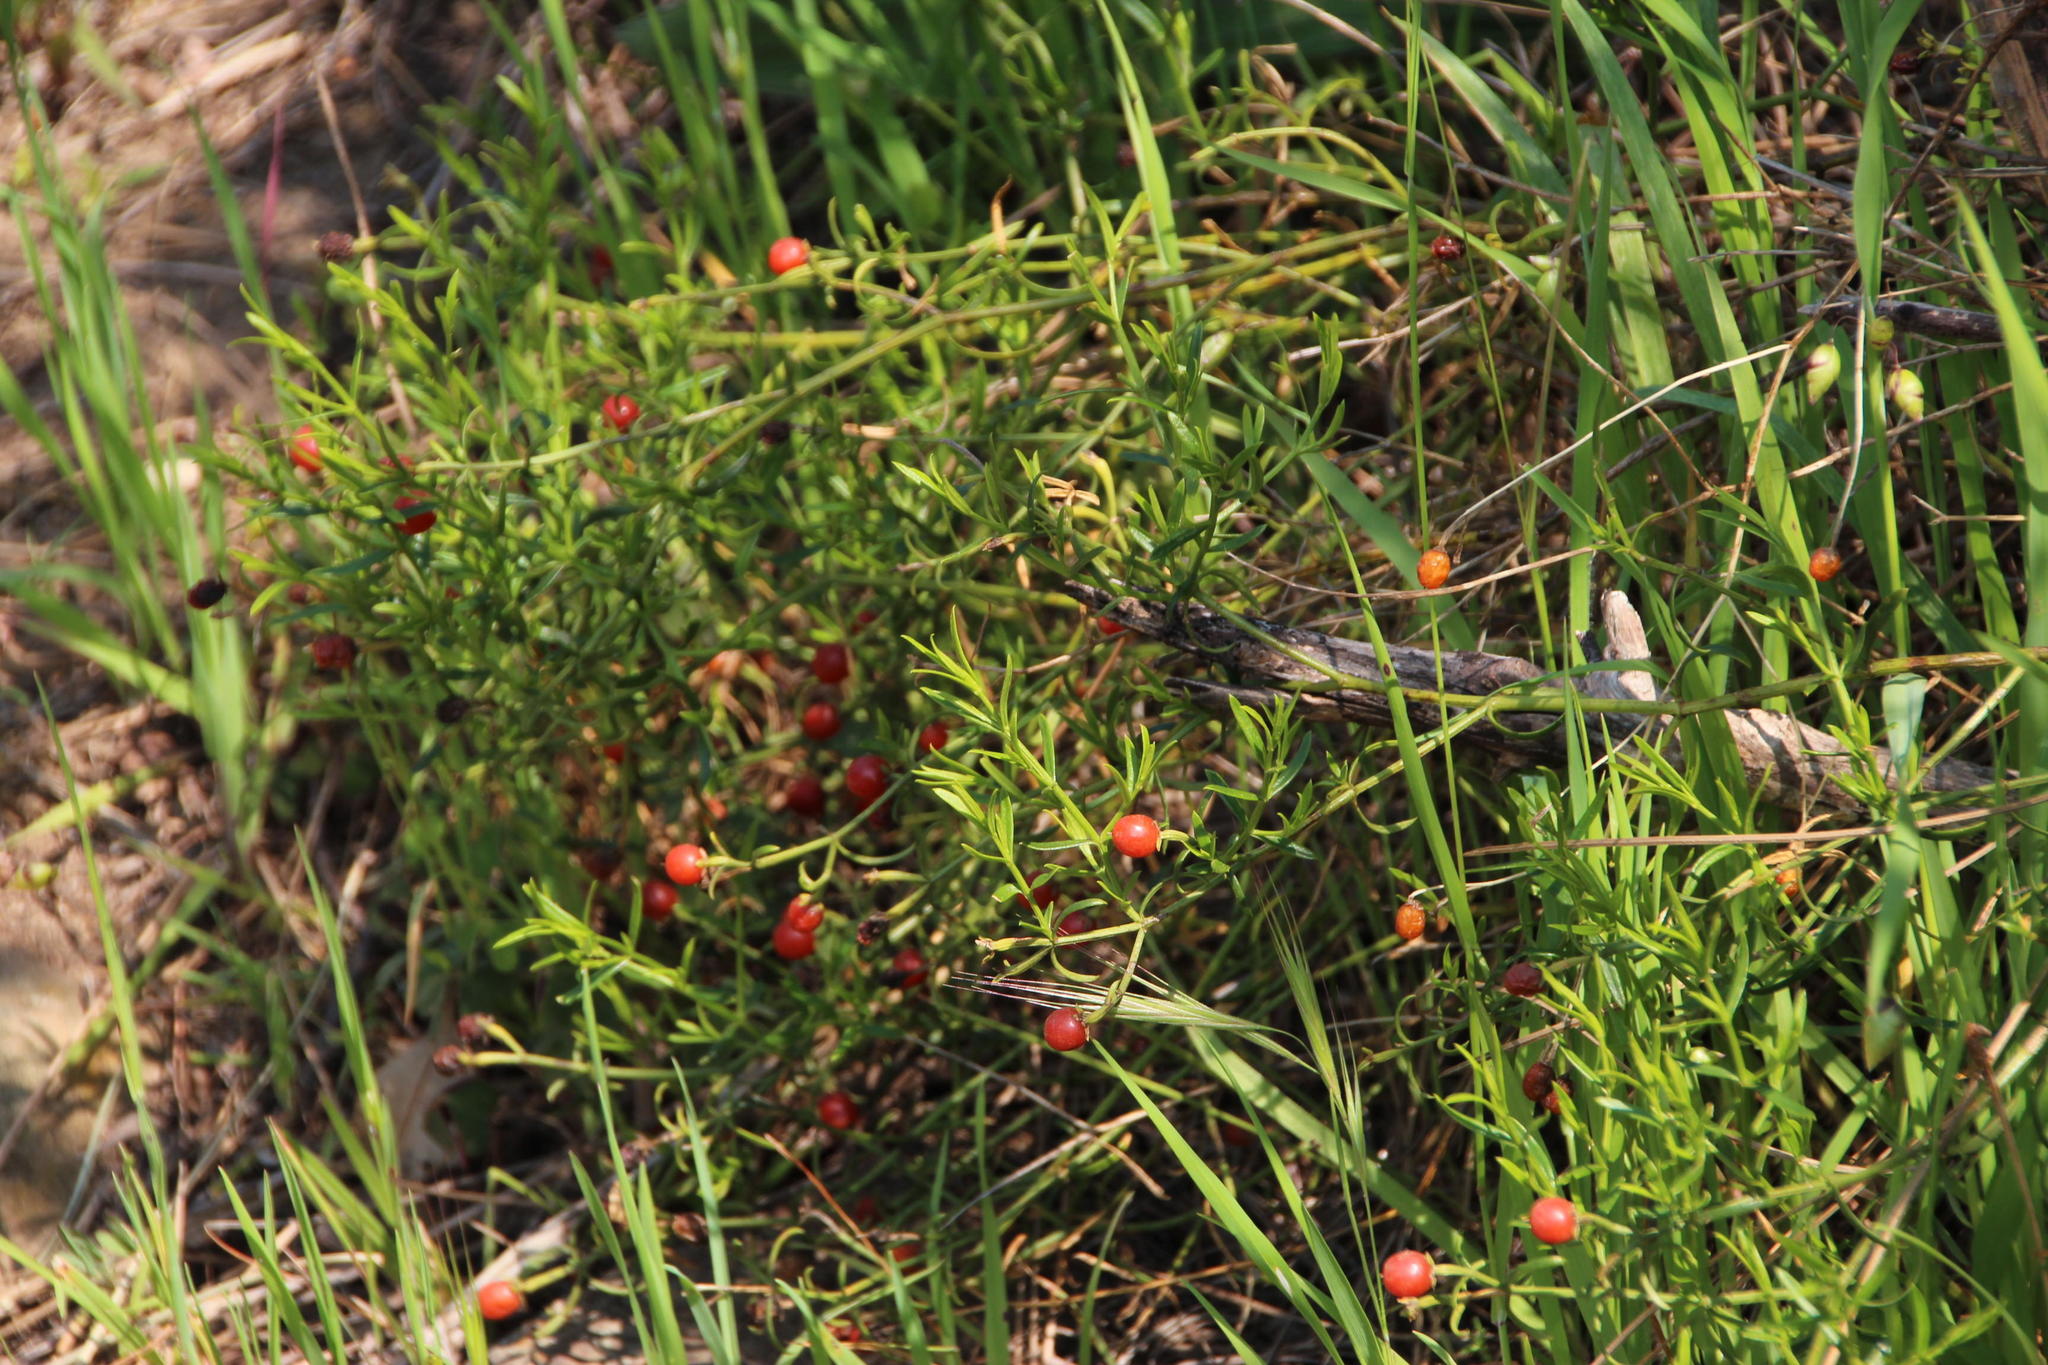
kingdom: Plantae
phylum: Tracheophyta
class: Magnoliopsida
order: Gentianales
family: Gentianaceae
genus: Chironia
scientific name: Chironia baccifera
